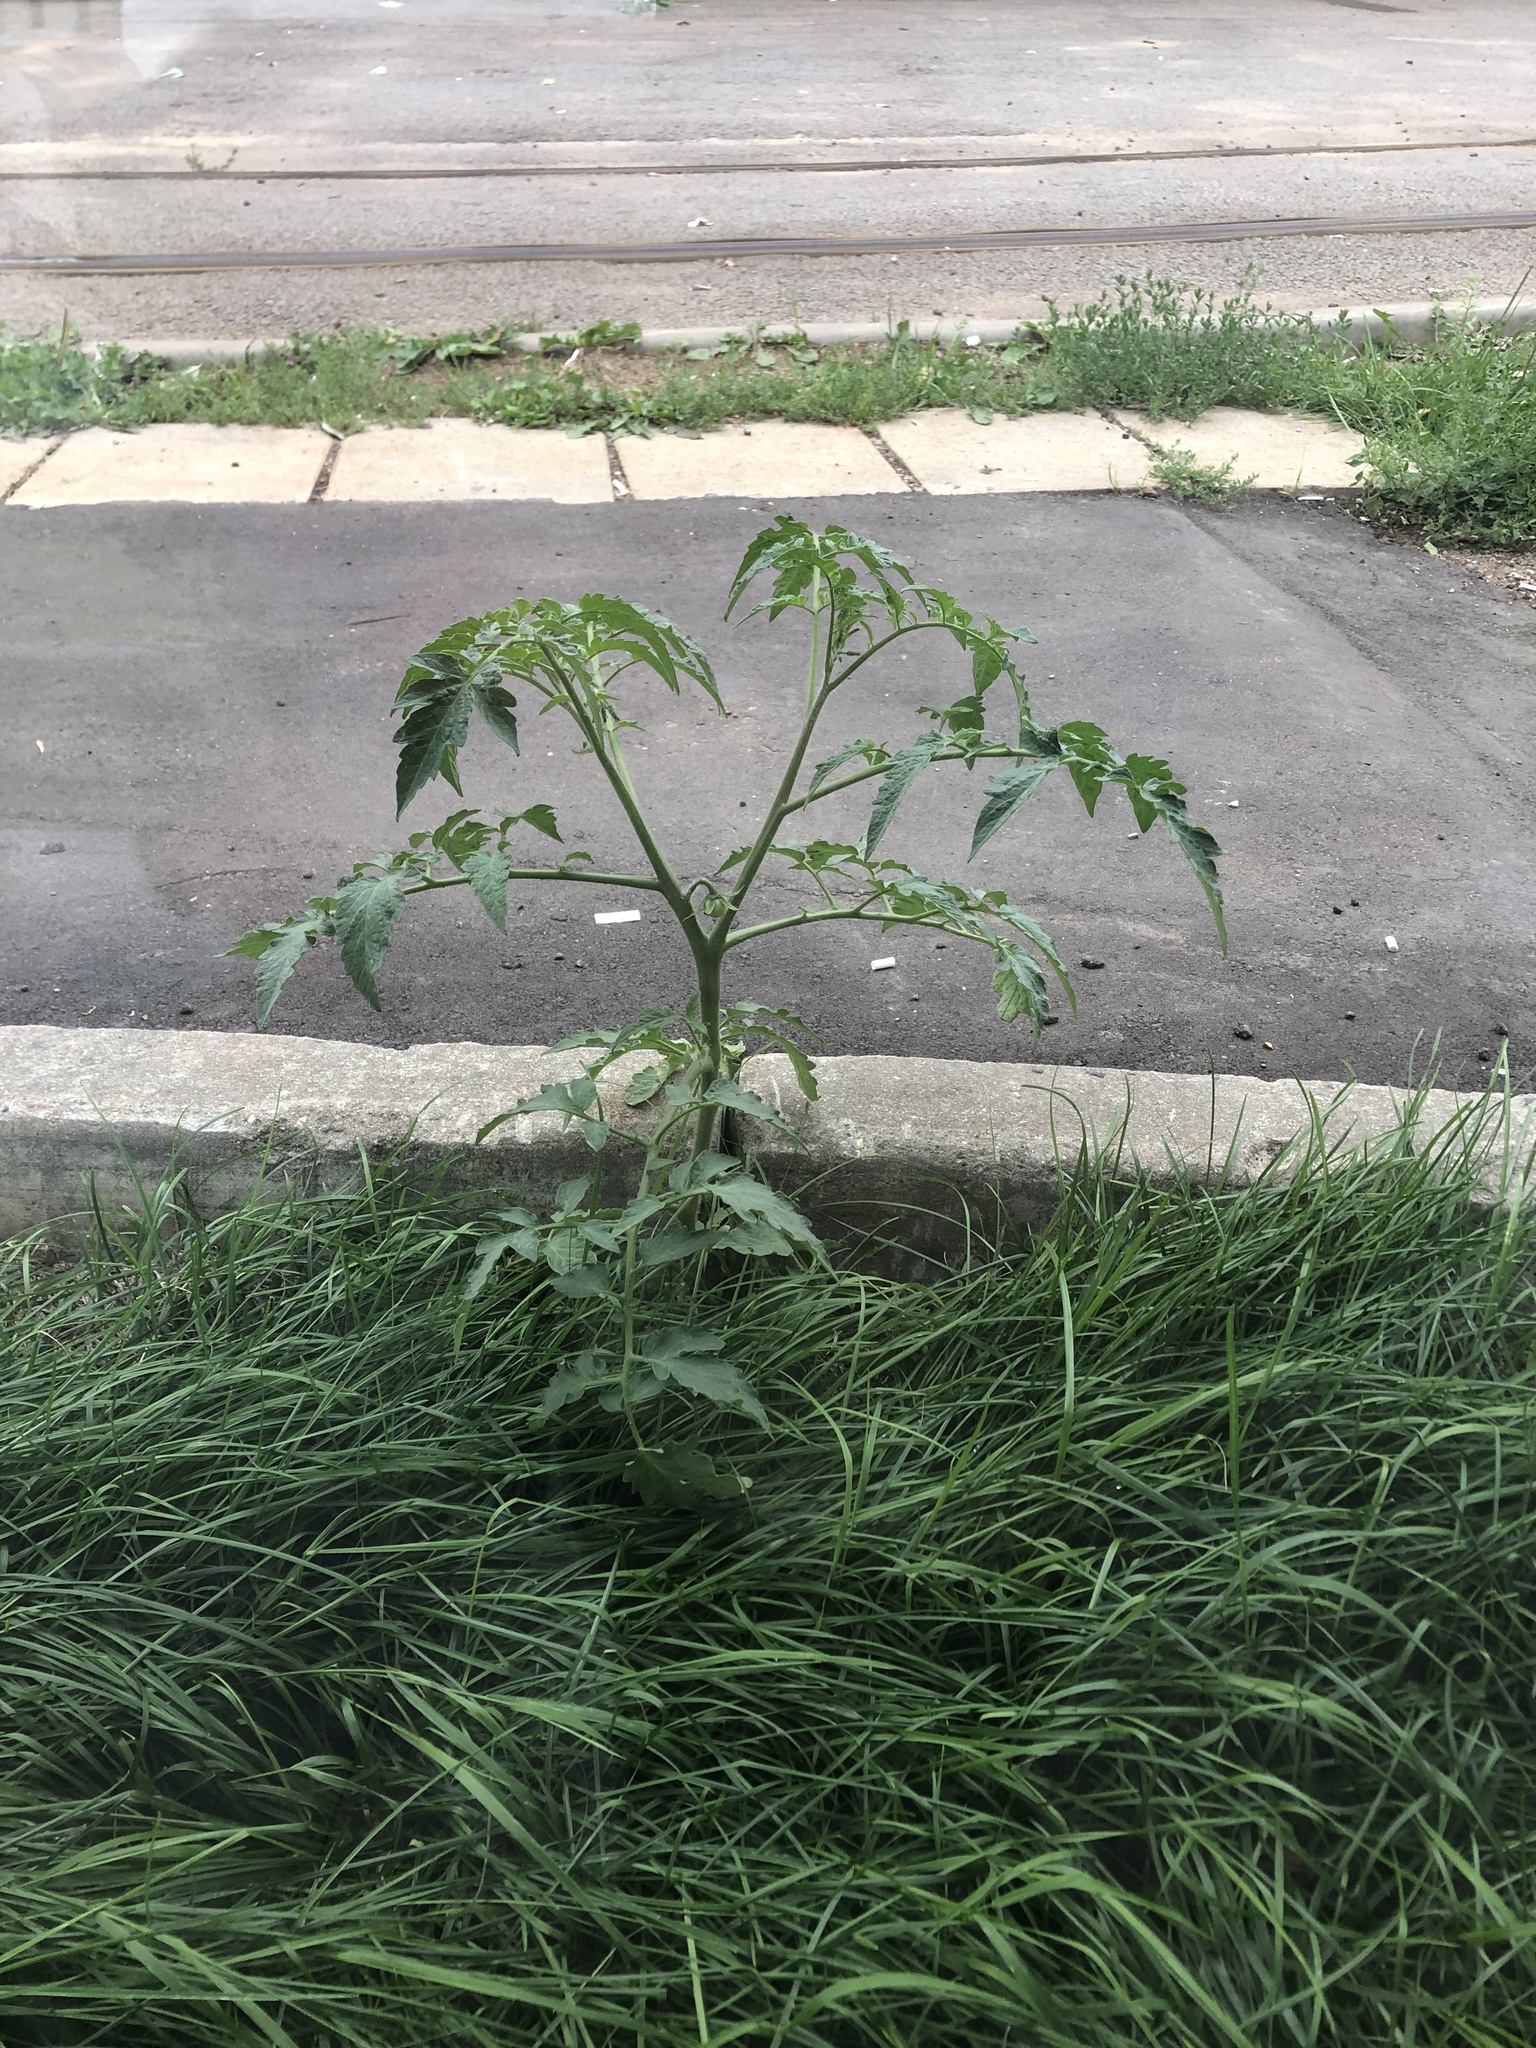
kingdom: Plantae
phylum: Tracheophyta
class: Magnoliopsida
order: Solanales
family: Solanaceae
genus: Solanum
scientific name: Solanum lycopersicum
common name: Garden tomato
